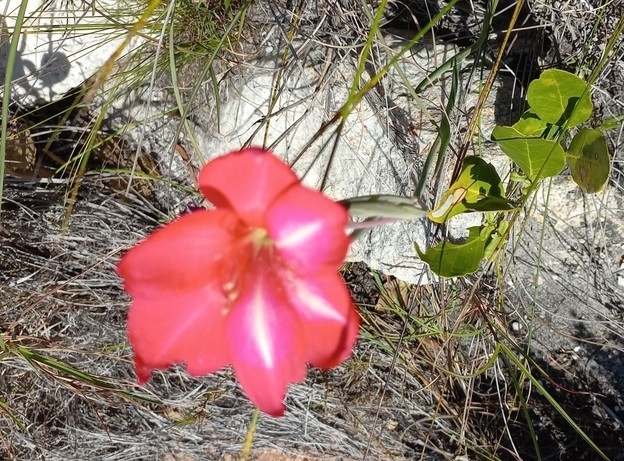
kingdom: Plantae
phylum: Tracheophyta
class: Liliopsida
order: Asparagales
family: Iridaceae
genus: Gladiolus
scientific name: Gladiolus carmineus
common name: Hermanus gladiolus
